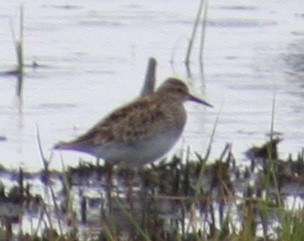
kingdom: Animalia
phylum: Chordata
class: Aves
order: Charadriiformes
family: Scolopacidae
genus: Calidris
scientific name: Calidris melanotos
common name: Pectoral sandpiper
